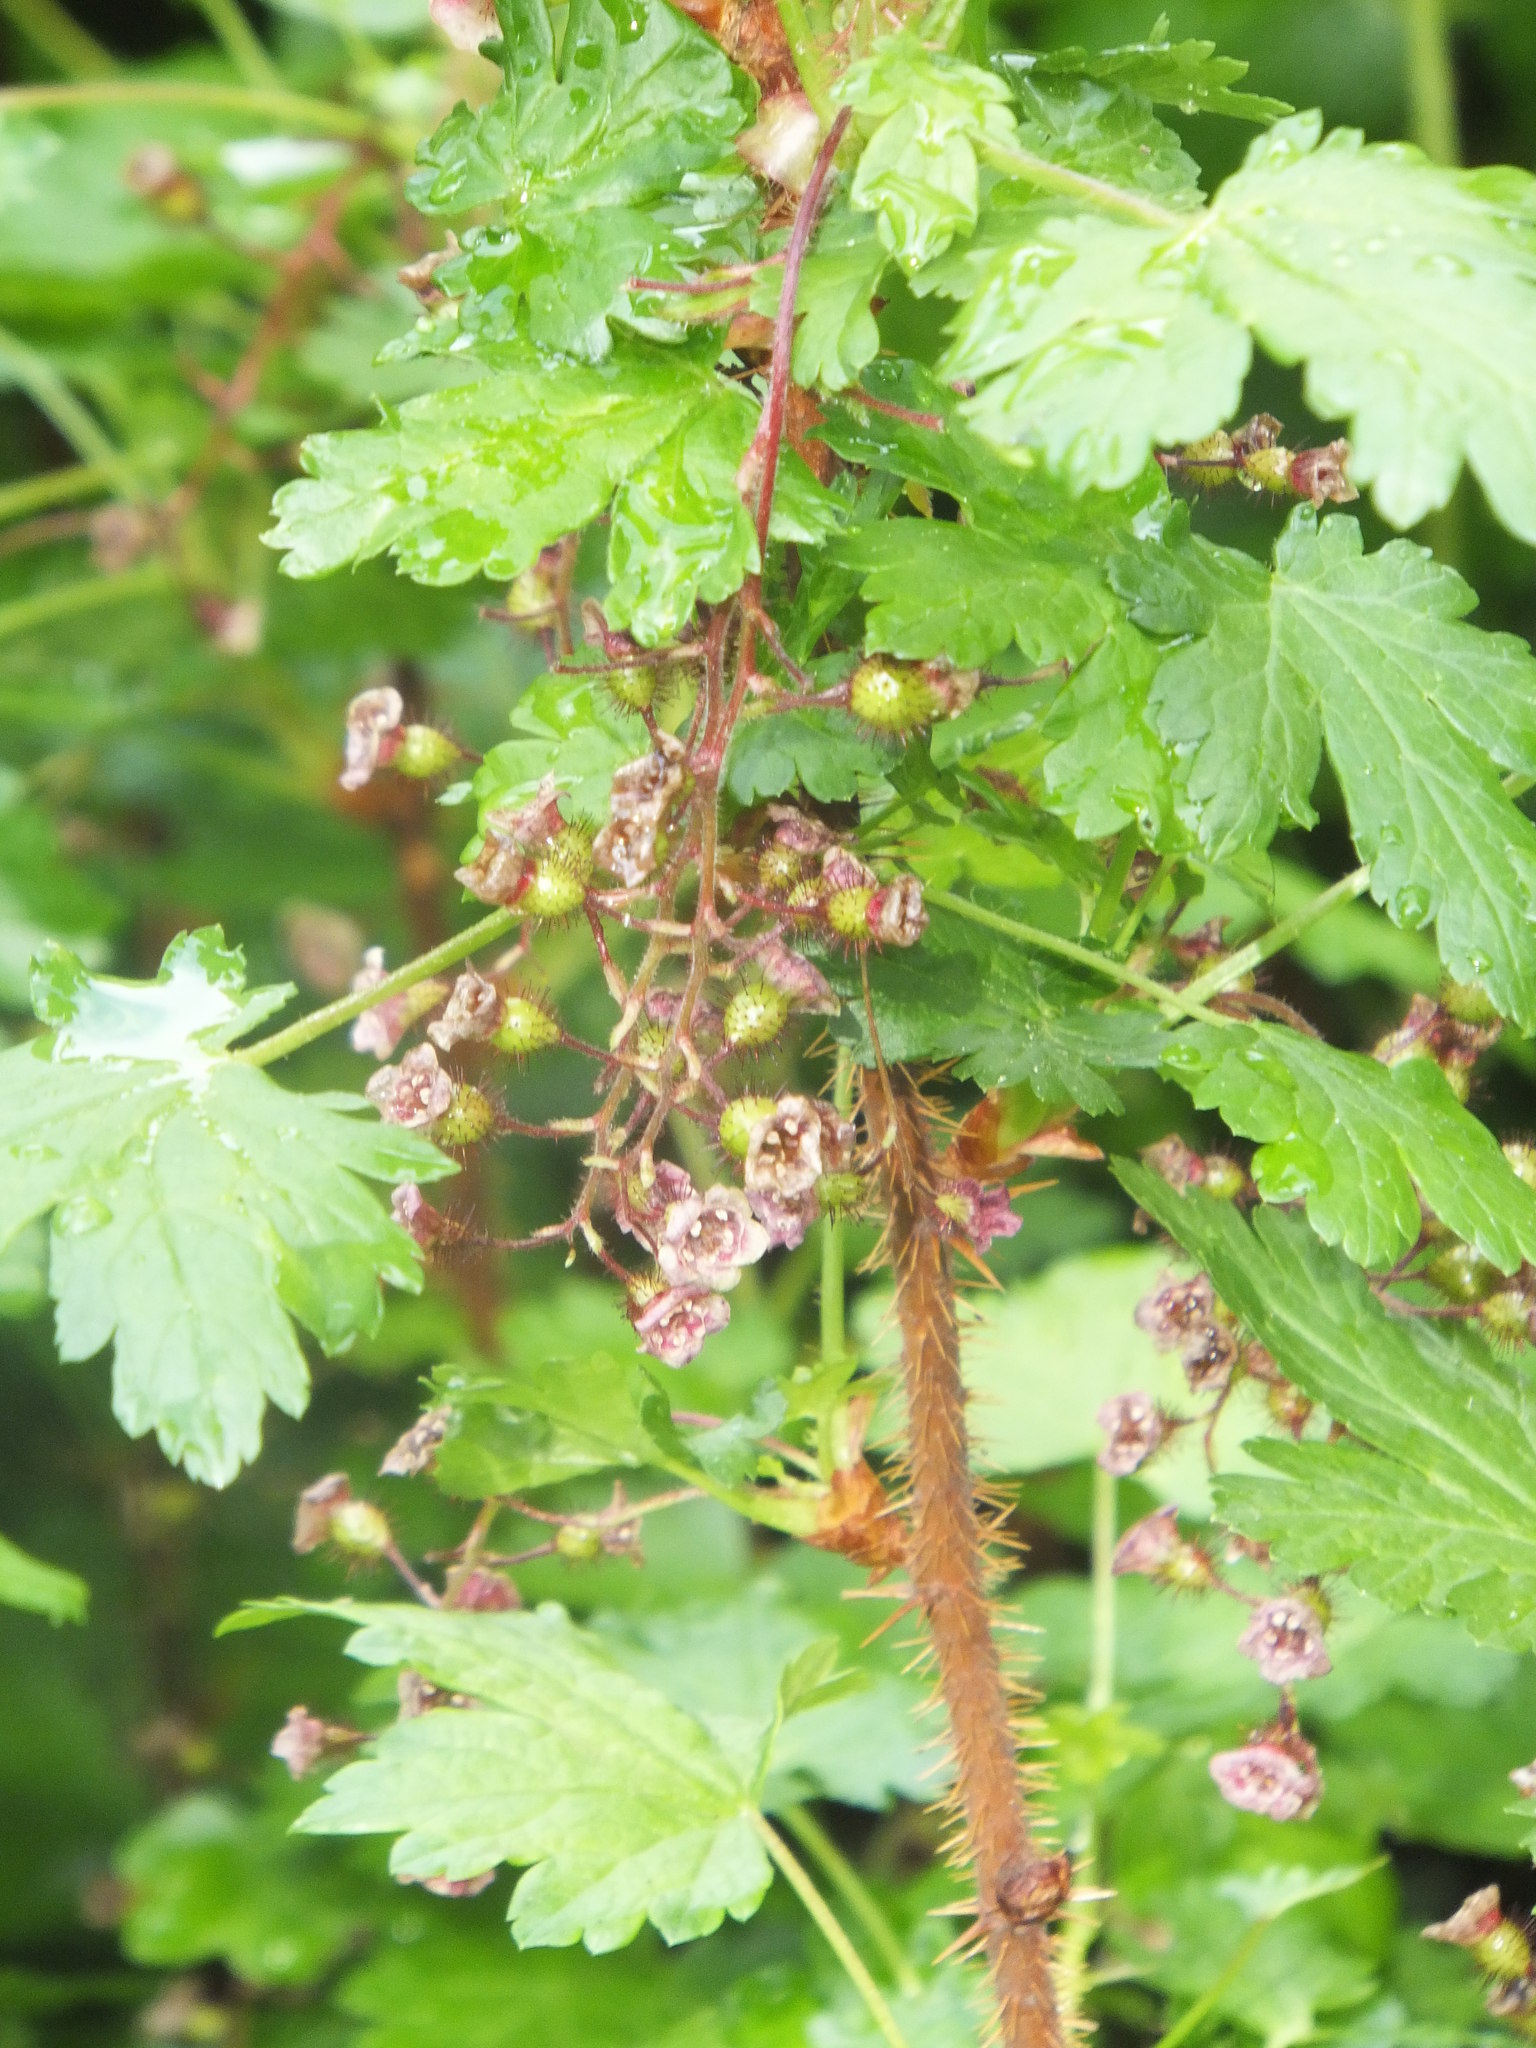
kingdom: Plantae
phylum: Tracheophyta
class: Magnoliopsida
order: Saxifragales
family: Grossulariaceae
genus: Ribes
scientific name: Ribes lacustre
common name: Black gooseberry
